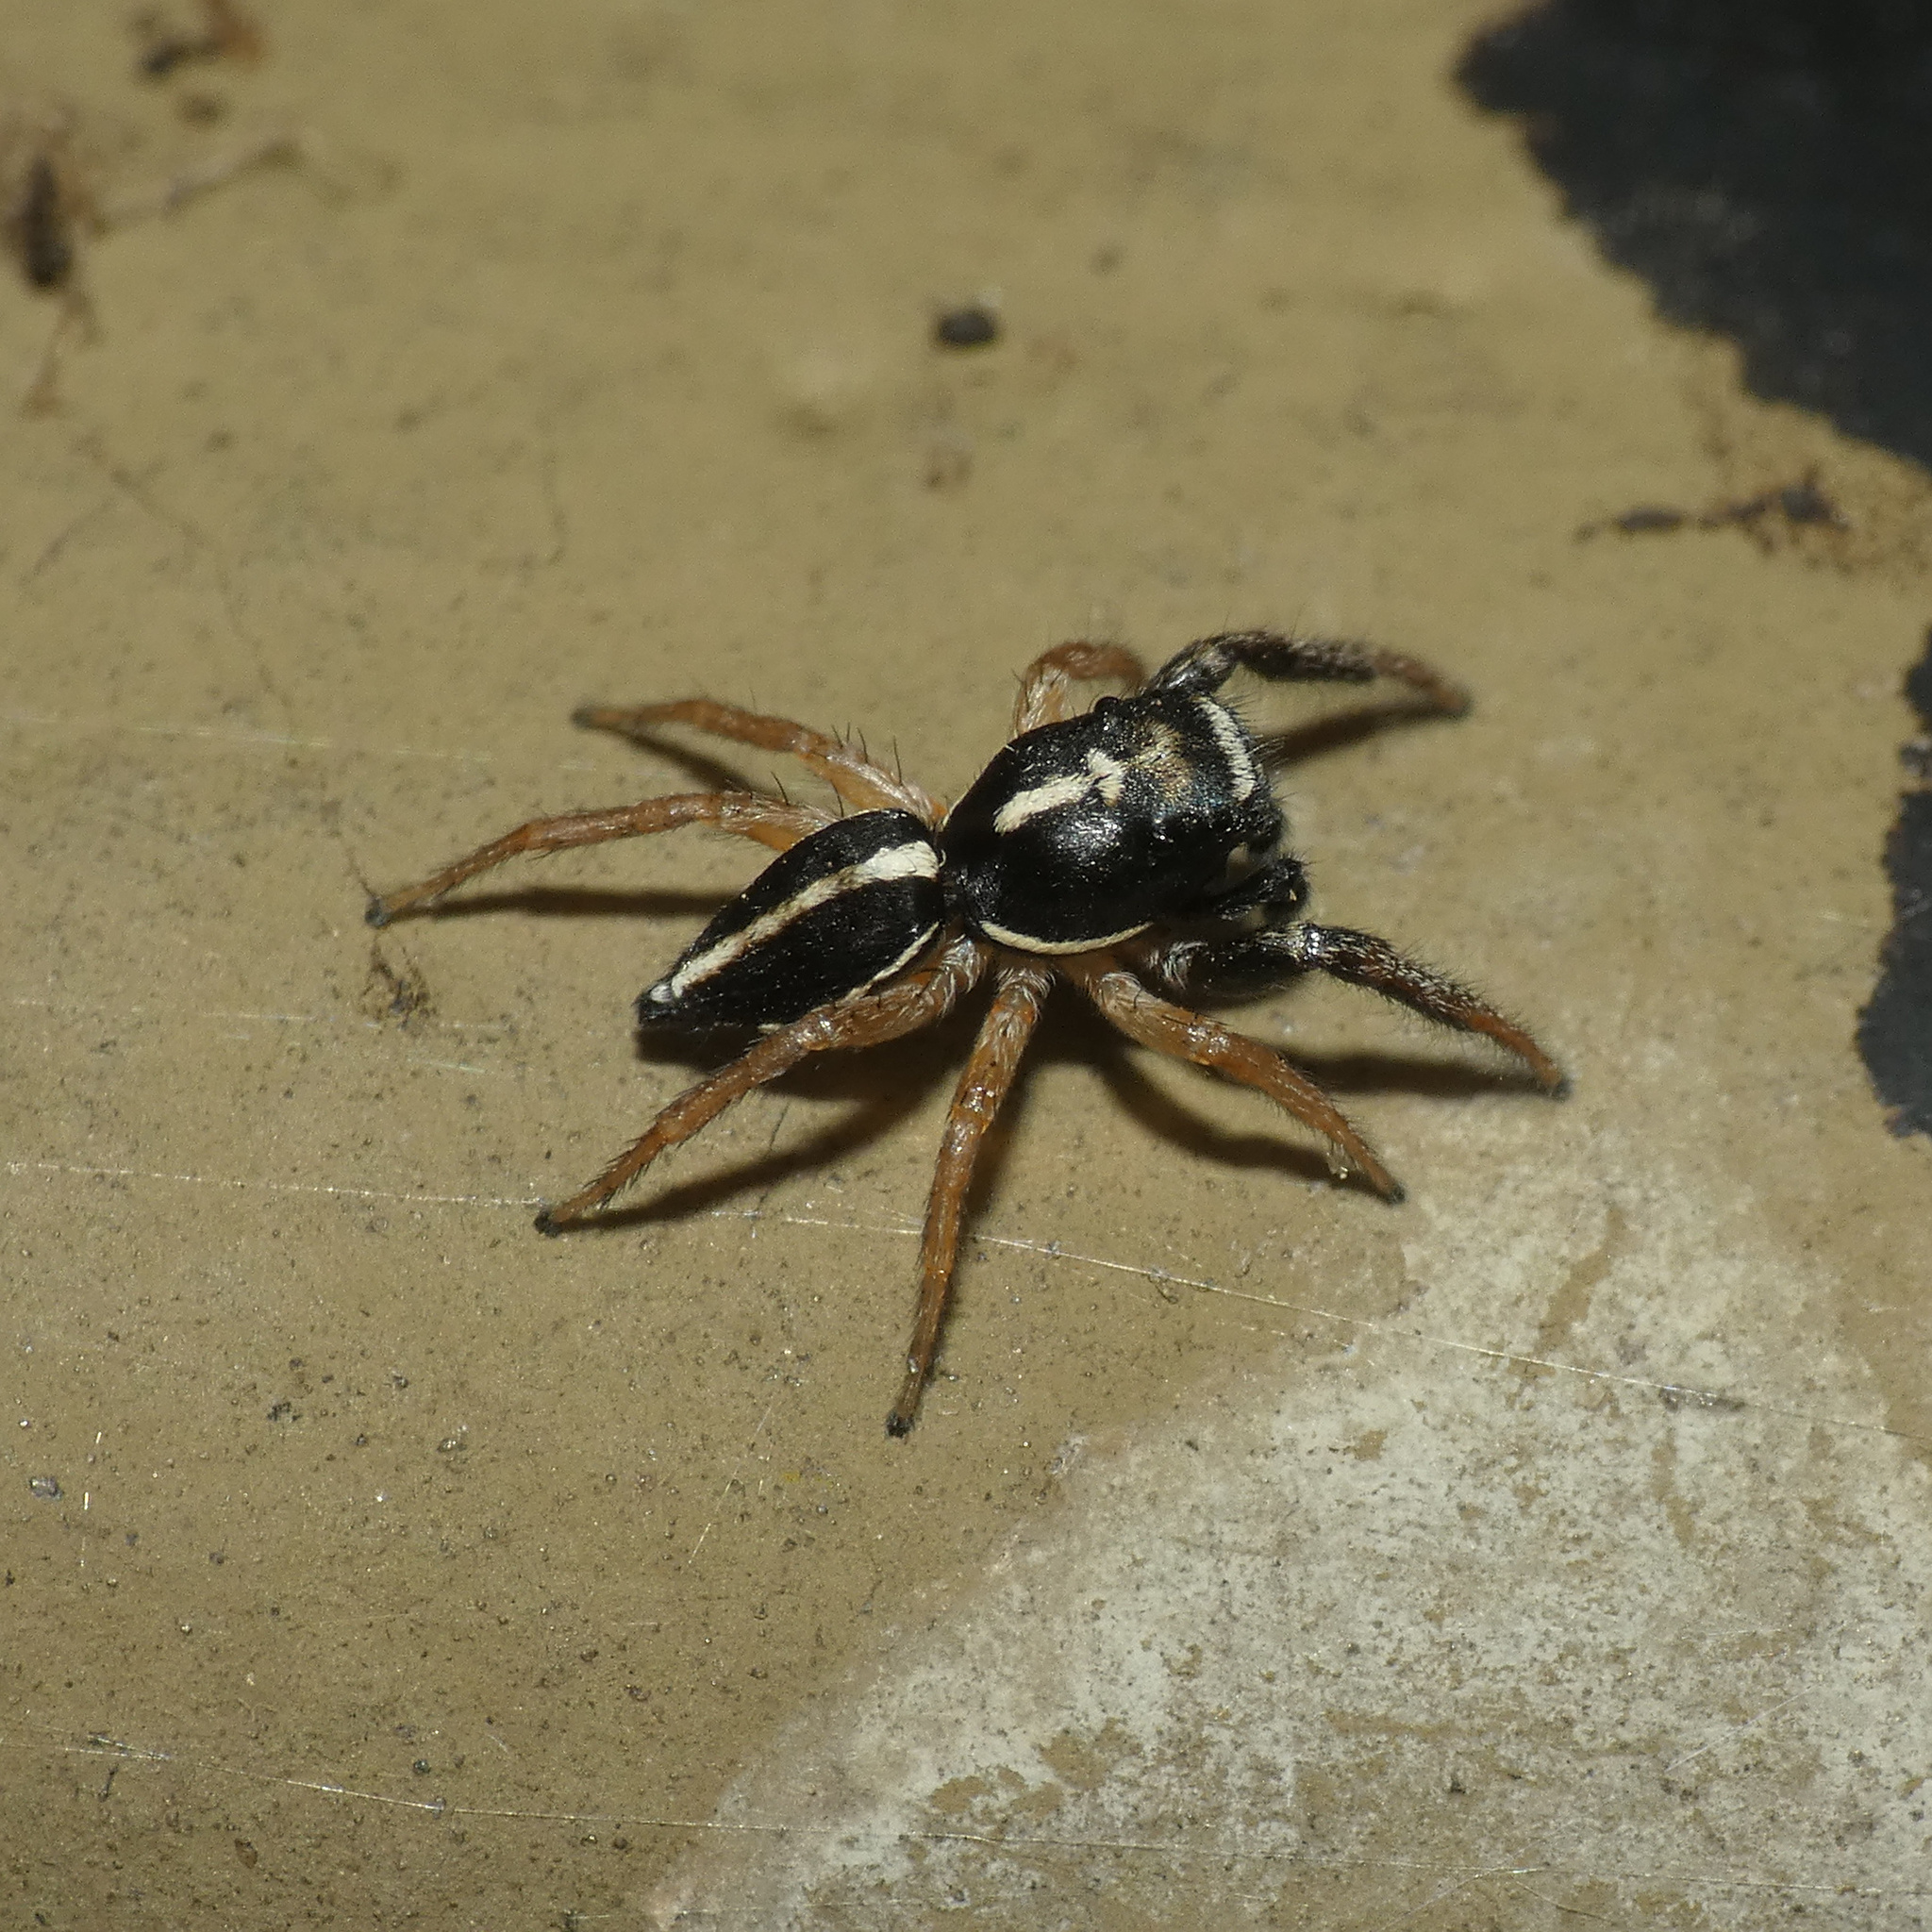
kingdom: Animalia
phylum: Arthropoda
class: Arachnida
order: Araneae
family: Salticidae
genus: Heliophanus
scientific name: Heliophanus
